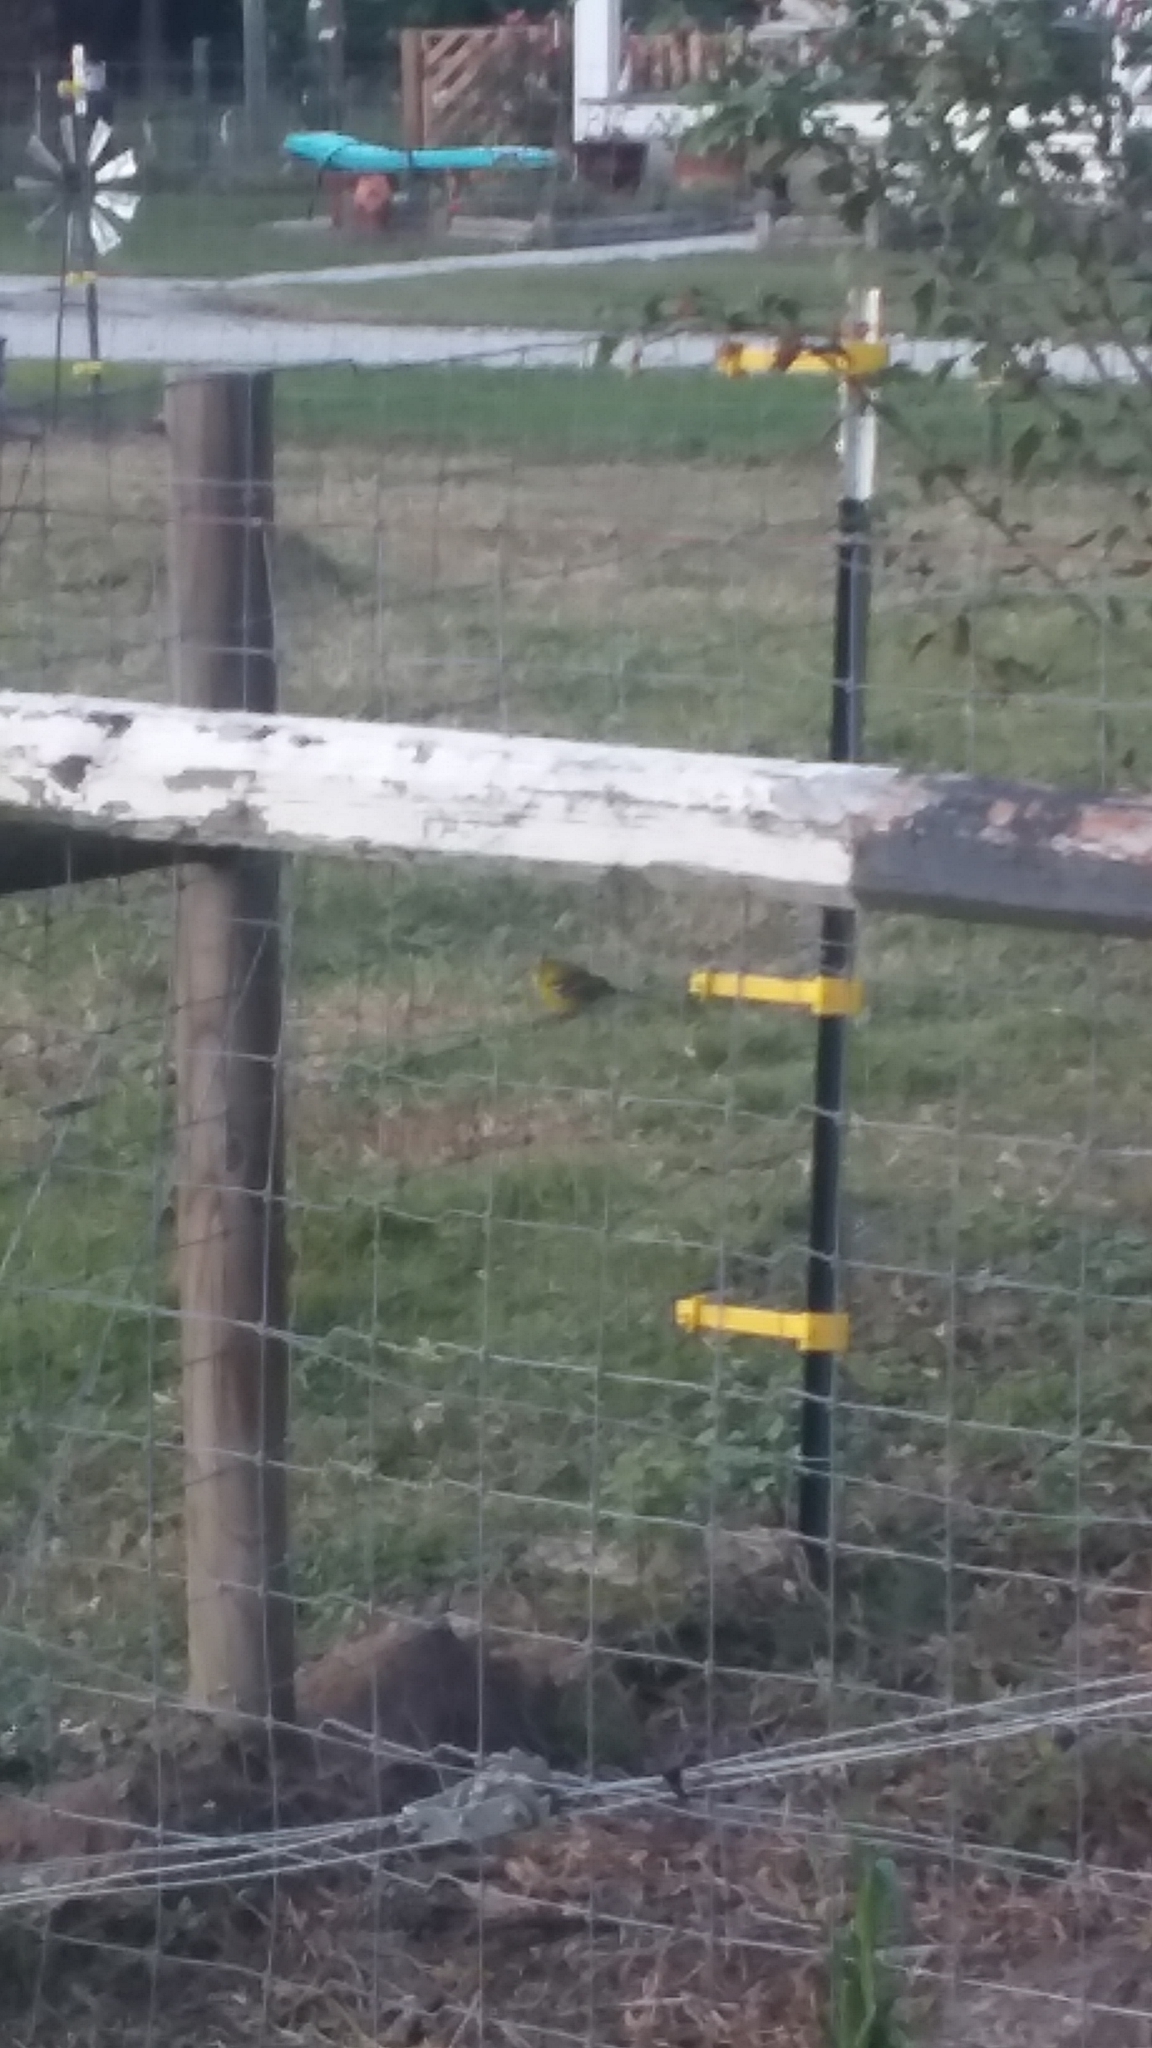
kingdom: Animalia
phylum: Chordata
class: Aves
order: Passeriformes
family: Parulidae
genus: Setophaga
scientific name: Setophaga pinus
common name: Pine warbler
